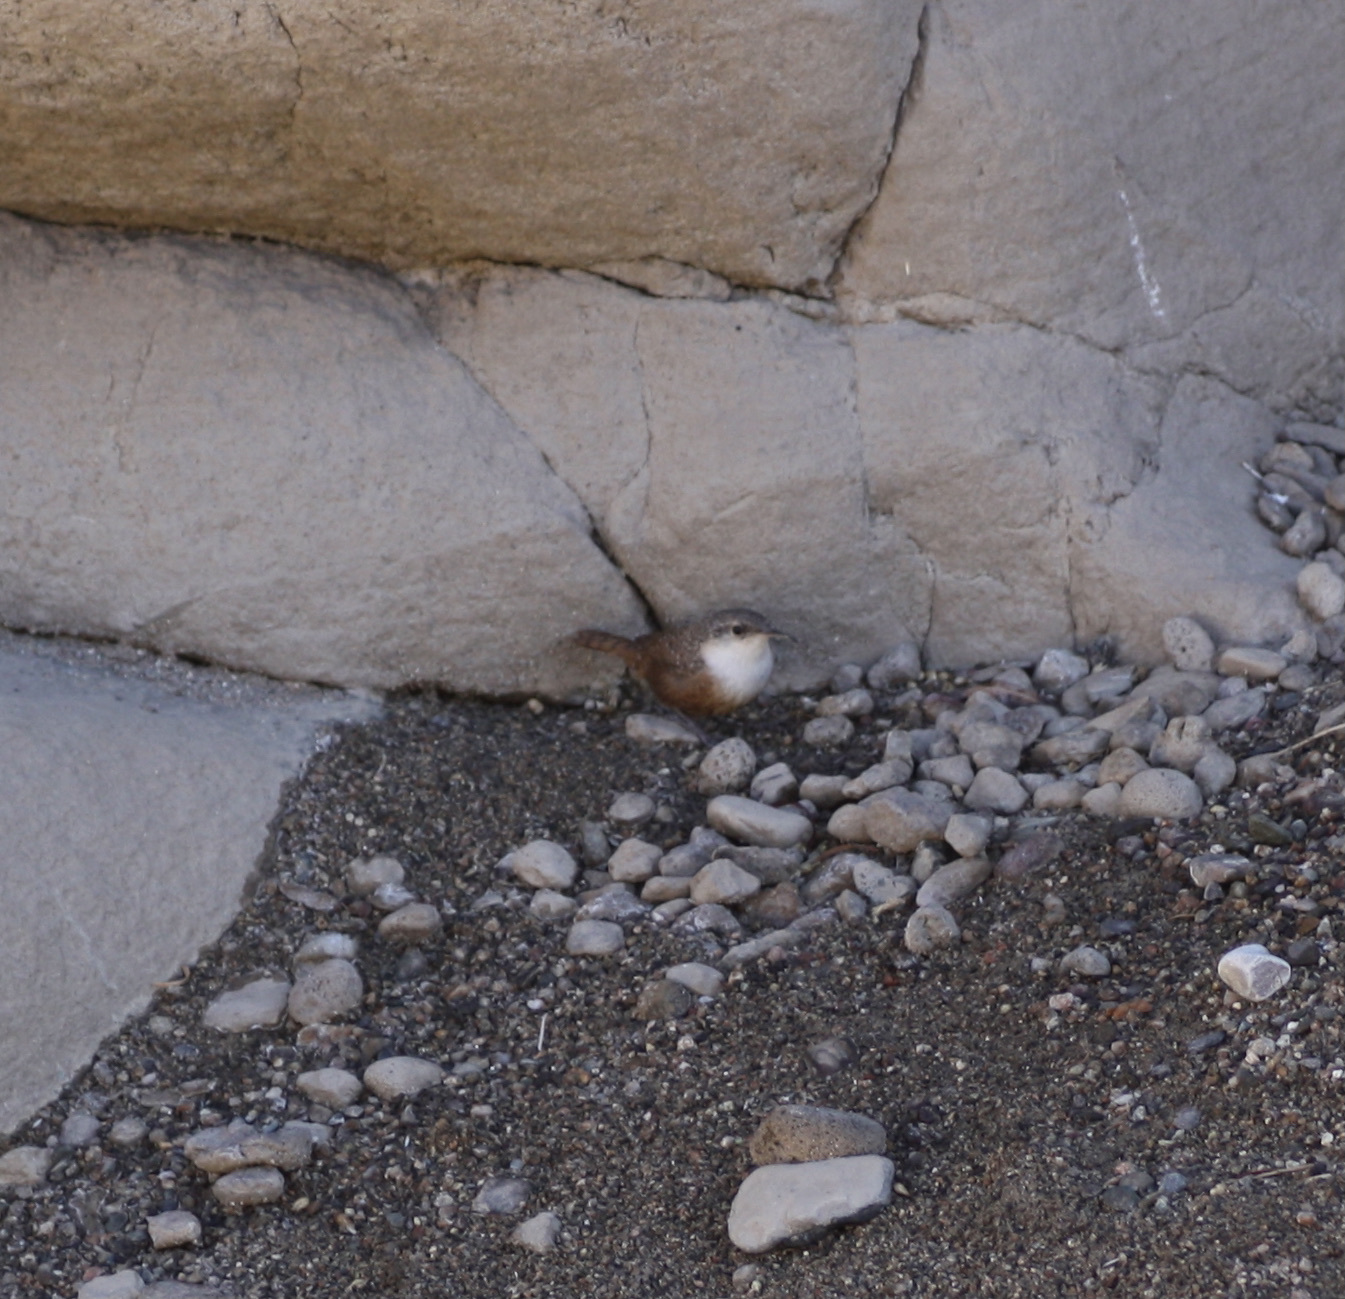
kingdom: Animalia
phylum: Chordata
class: Aves
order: Passeriformes
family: Troglodytidae
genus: Catherpes
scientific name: Catherpes mexicanus
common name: Canyon wren
